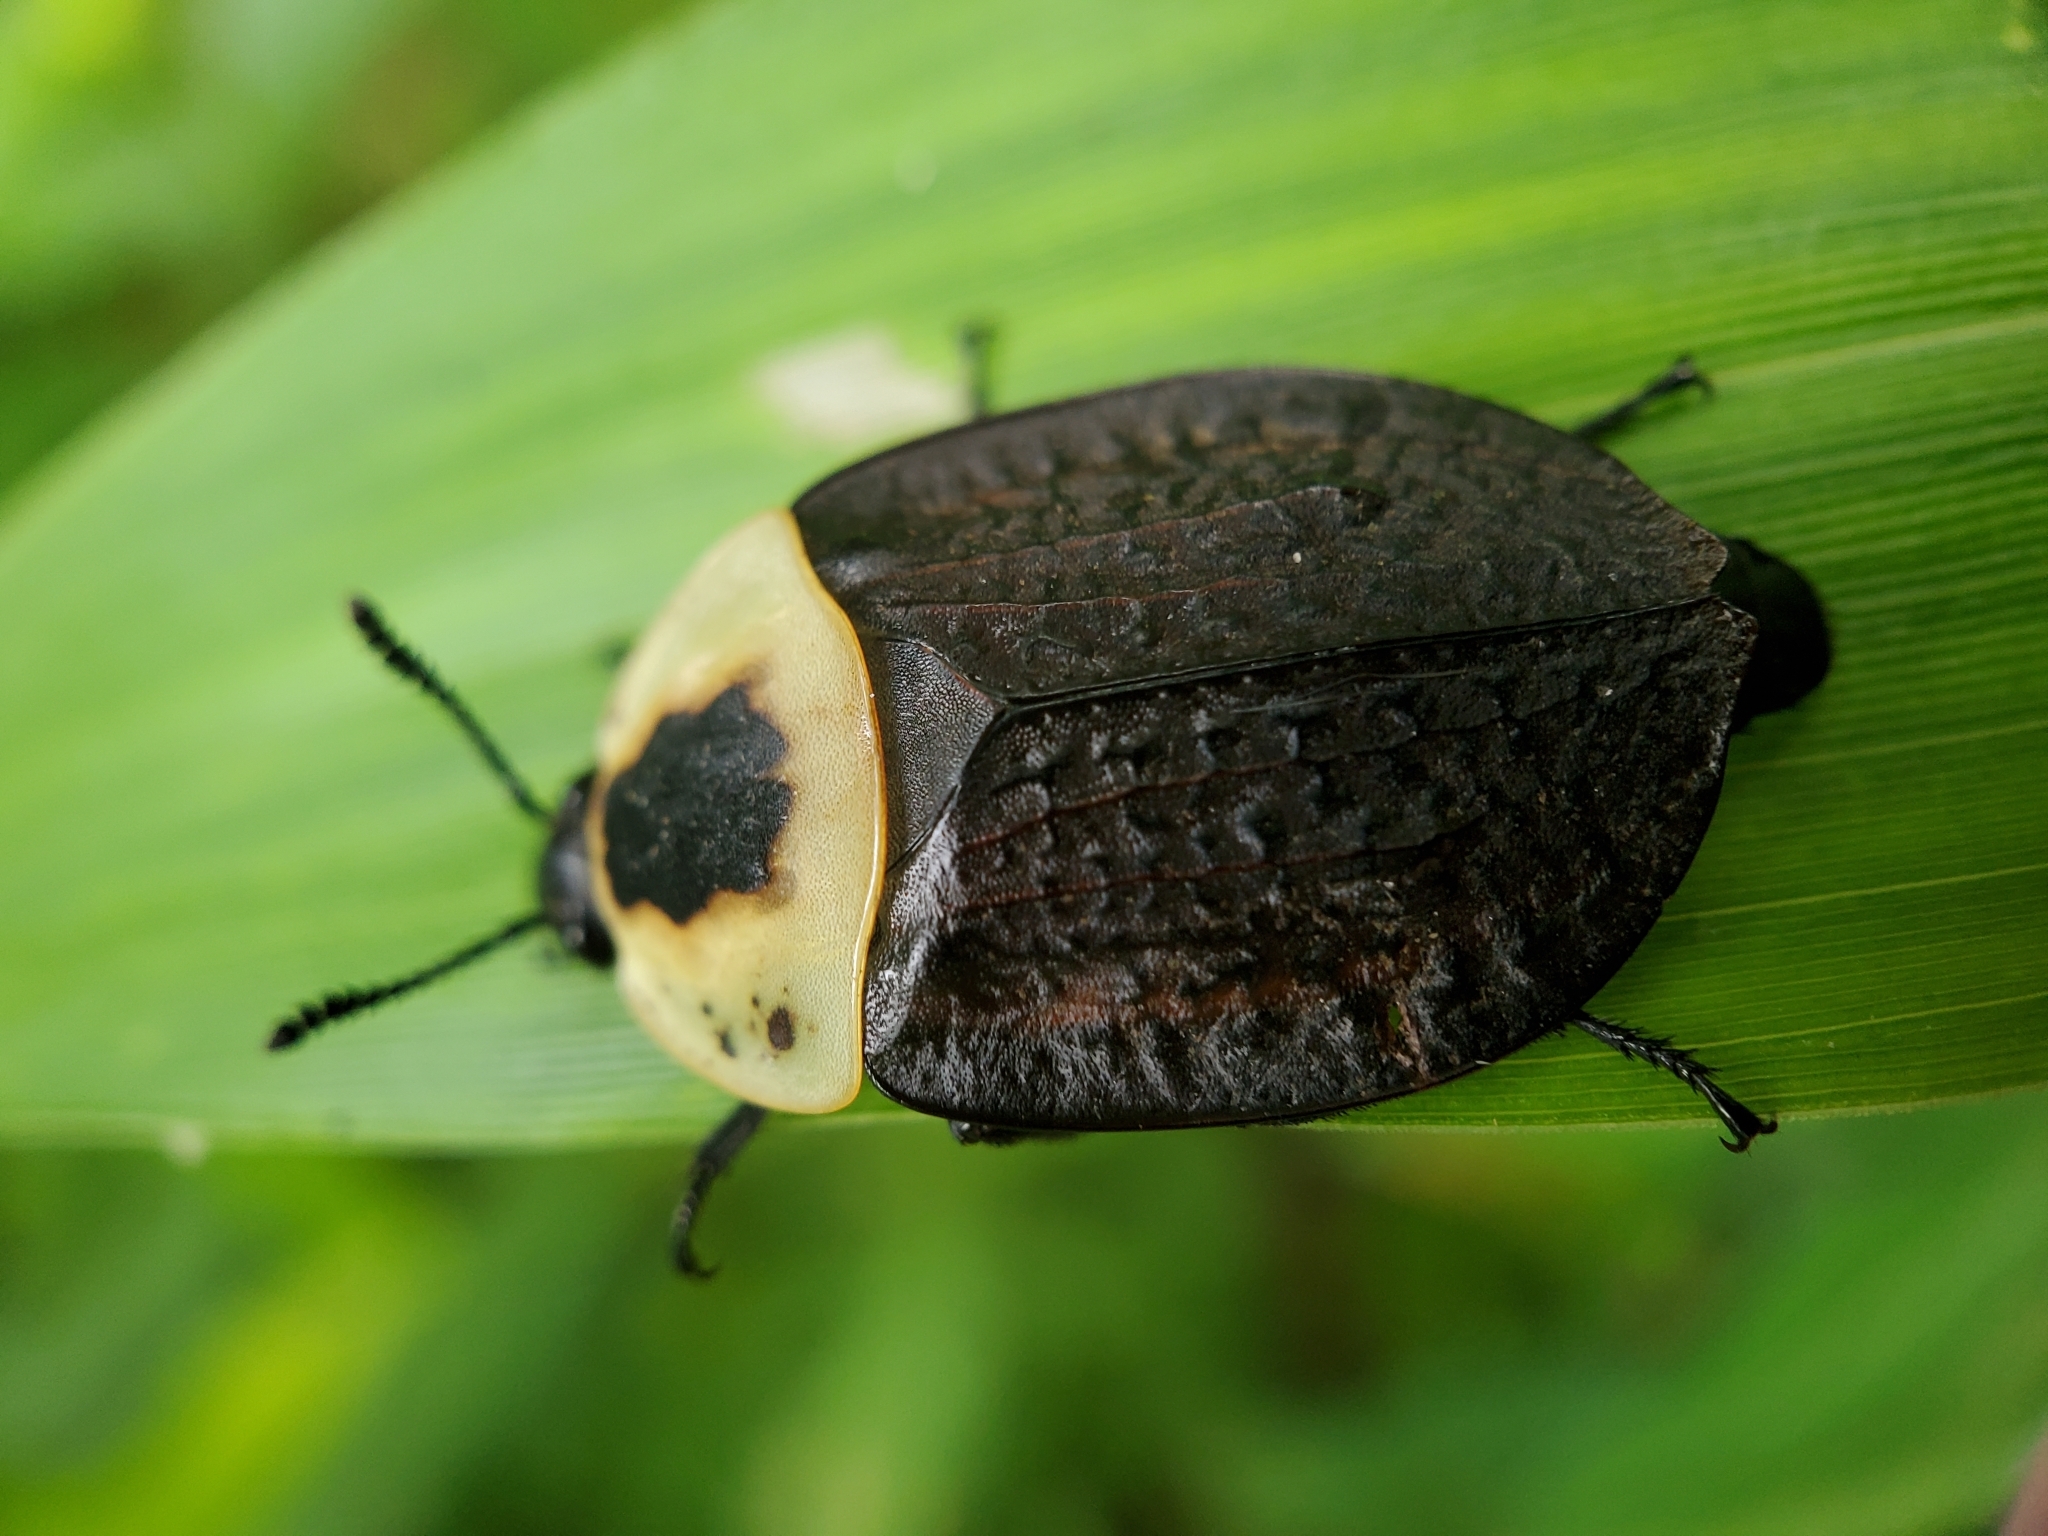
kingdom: Animalia
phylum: Arthropoda
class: Insecta
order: Coleoptera
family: Staphylinidae
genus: Necrophila
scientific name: Necrophila americana
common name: American carrion beetle
